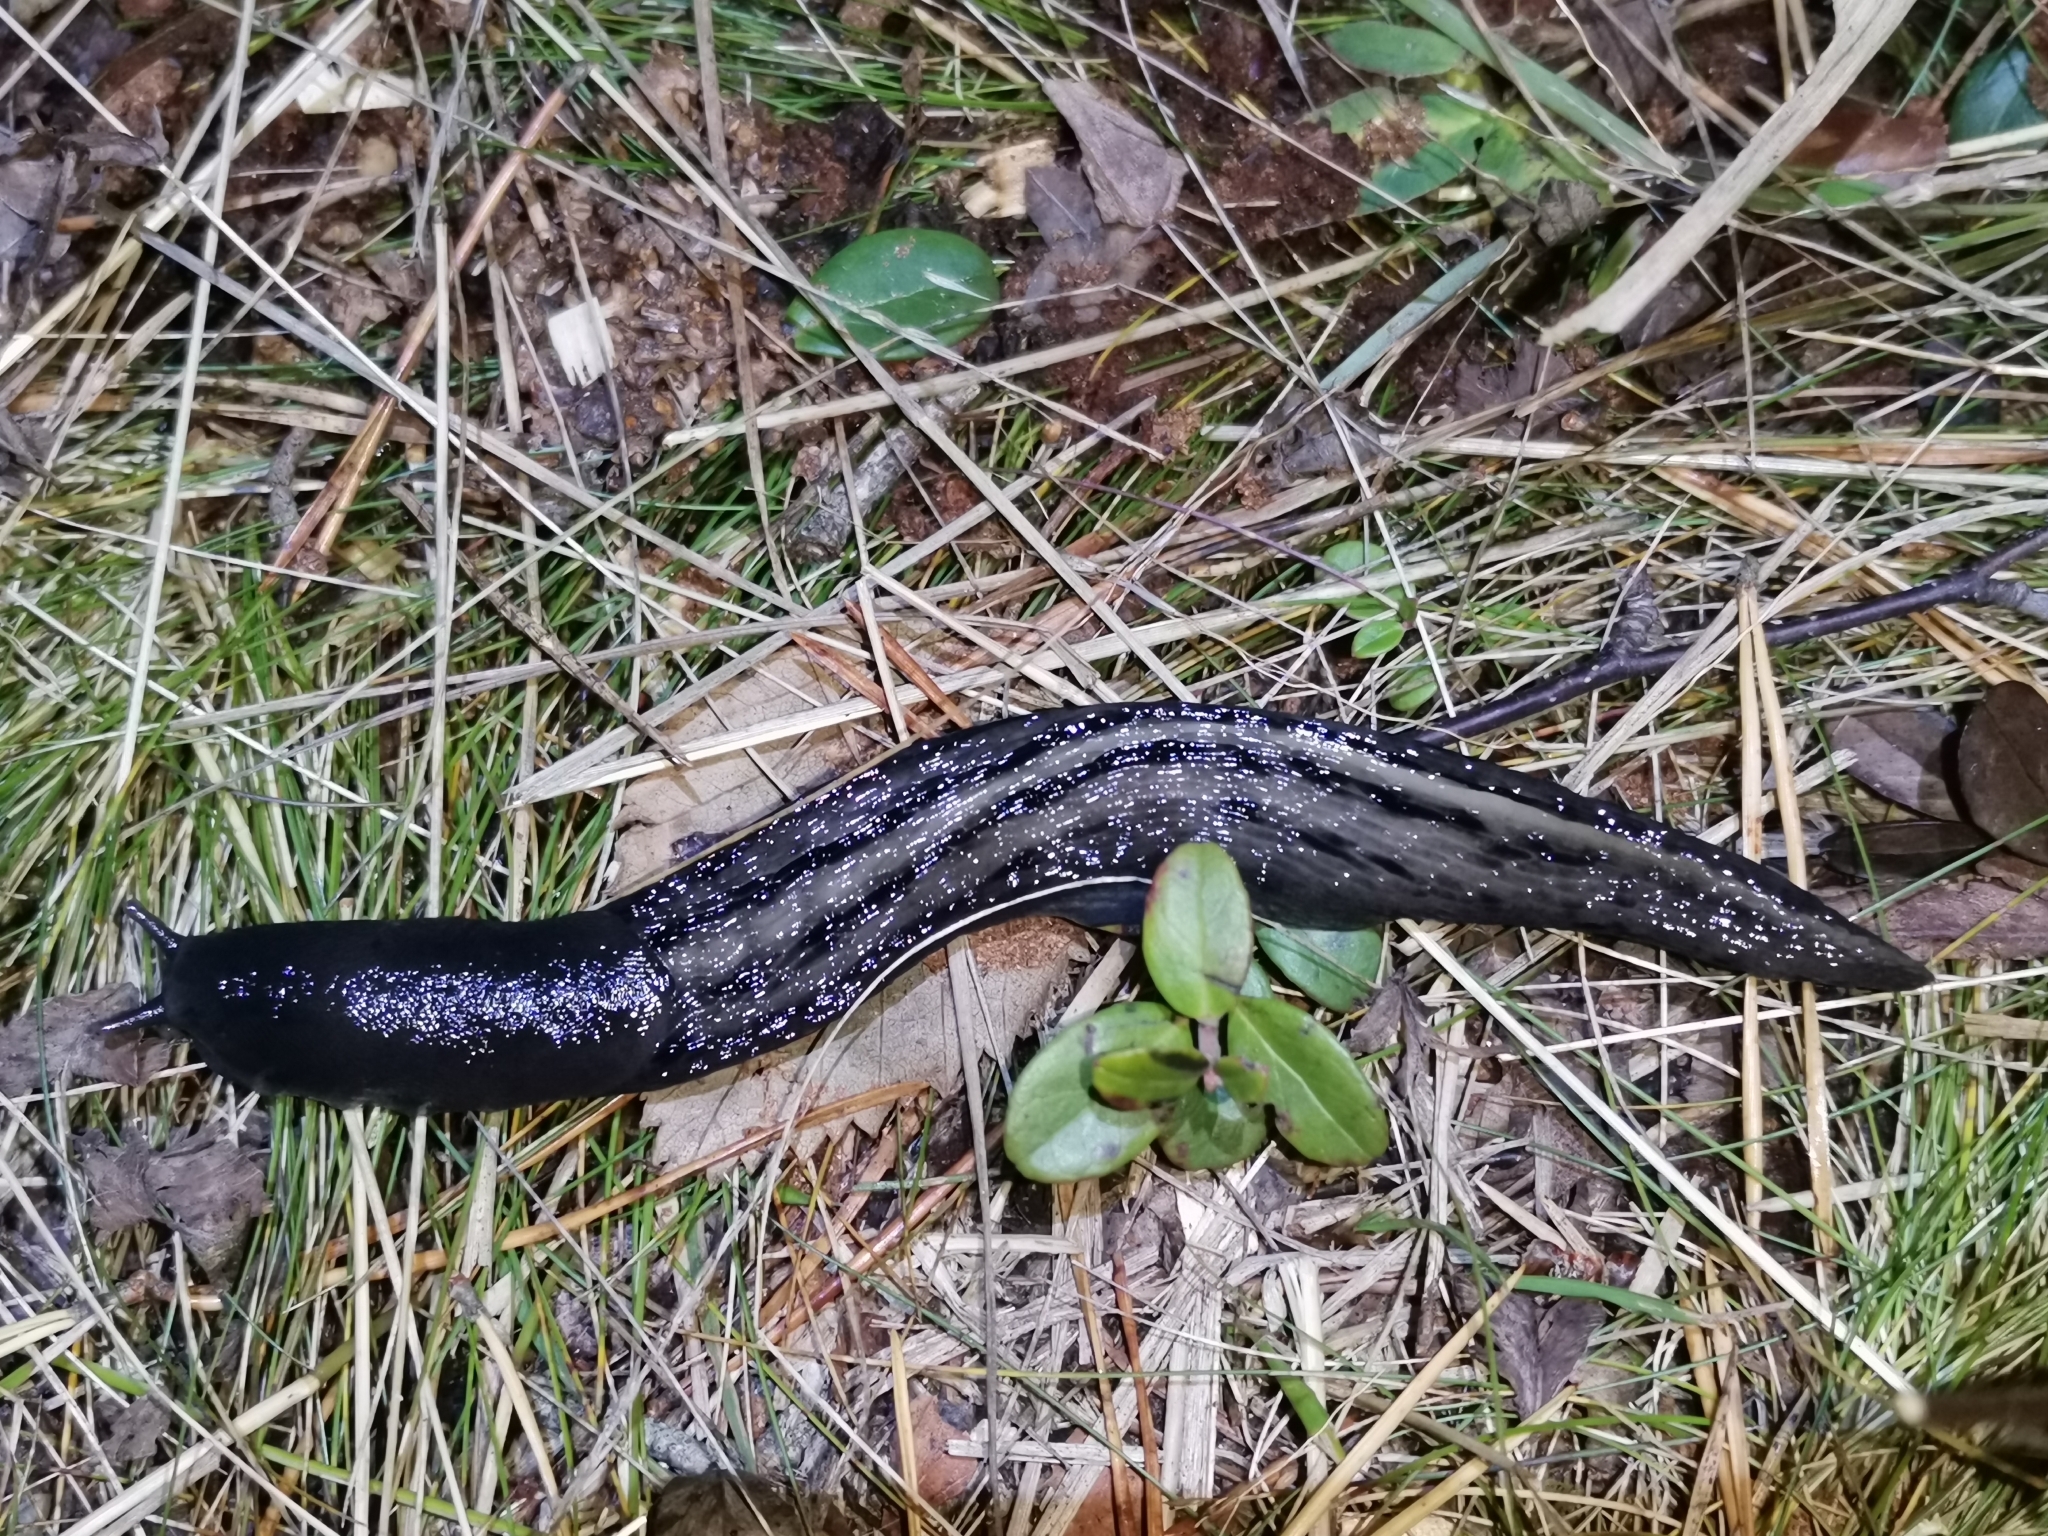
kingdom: Animalia
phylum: Mollusca
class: Gastropoda
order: Stylommatophora
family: Limacidae
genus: Limax
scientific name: Limax cinereoniger
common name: Ash-black slug
